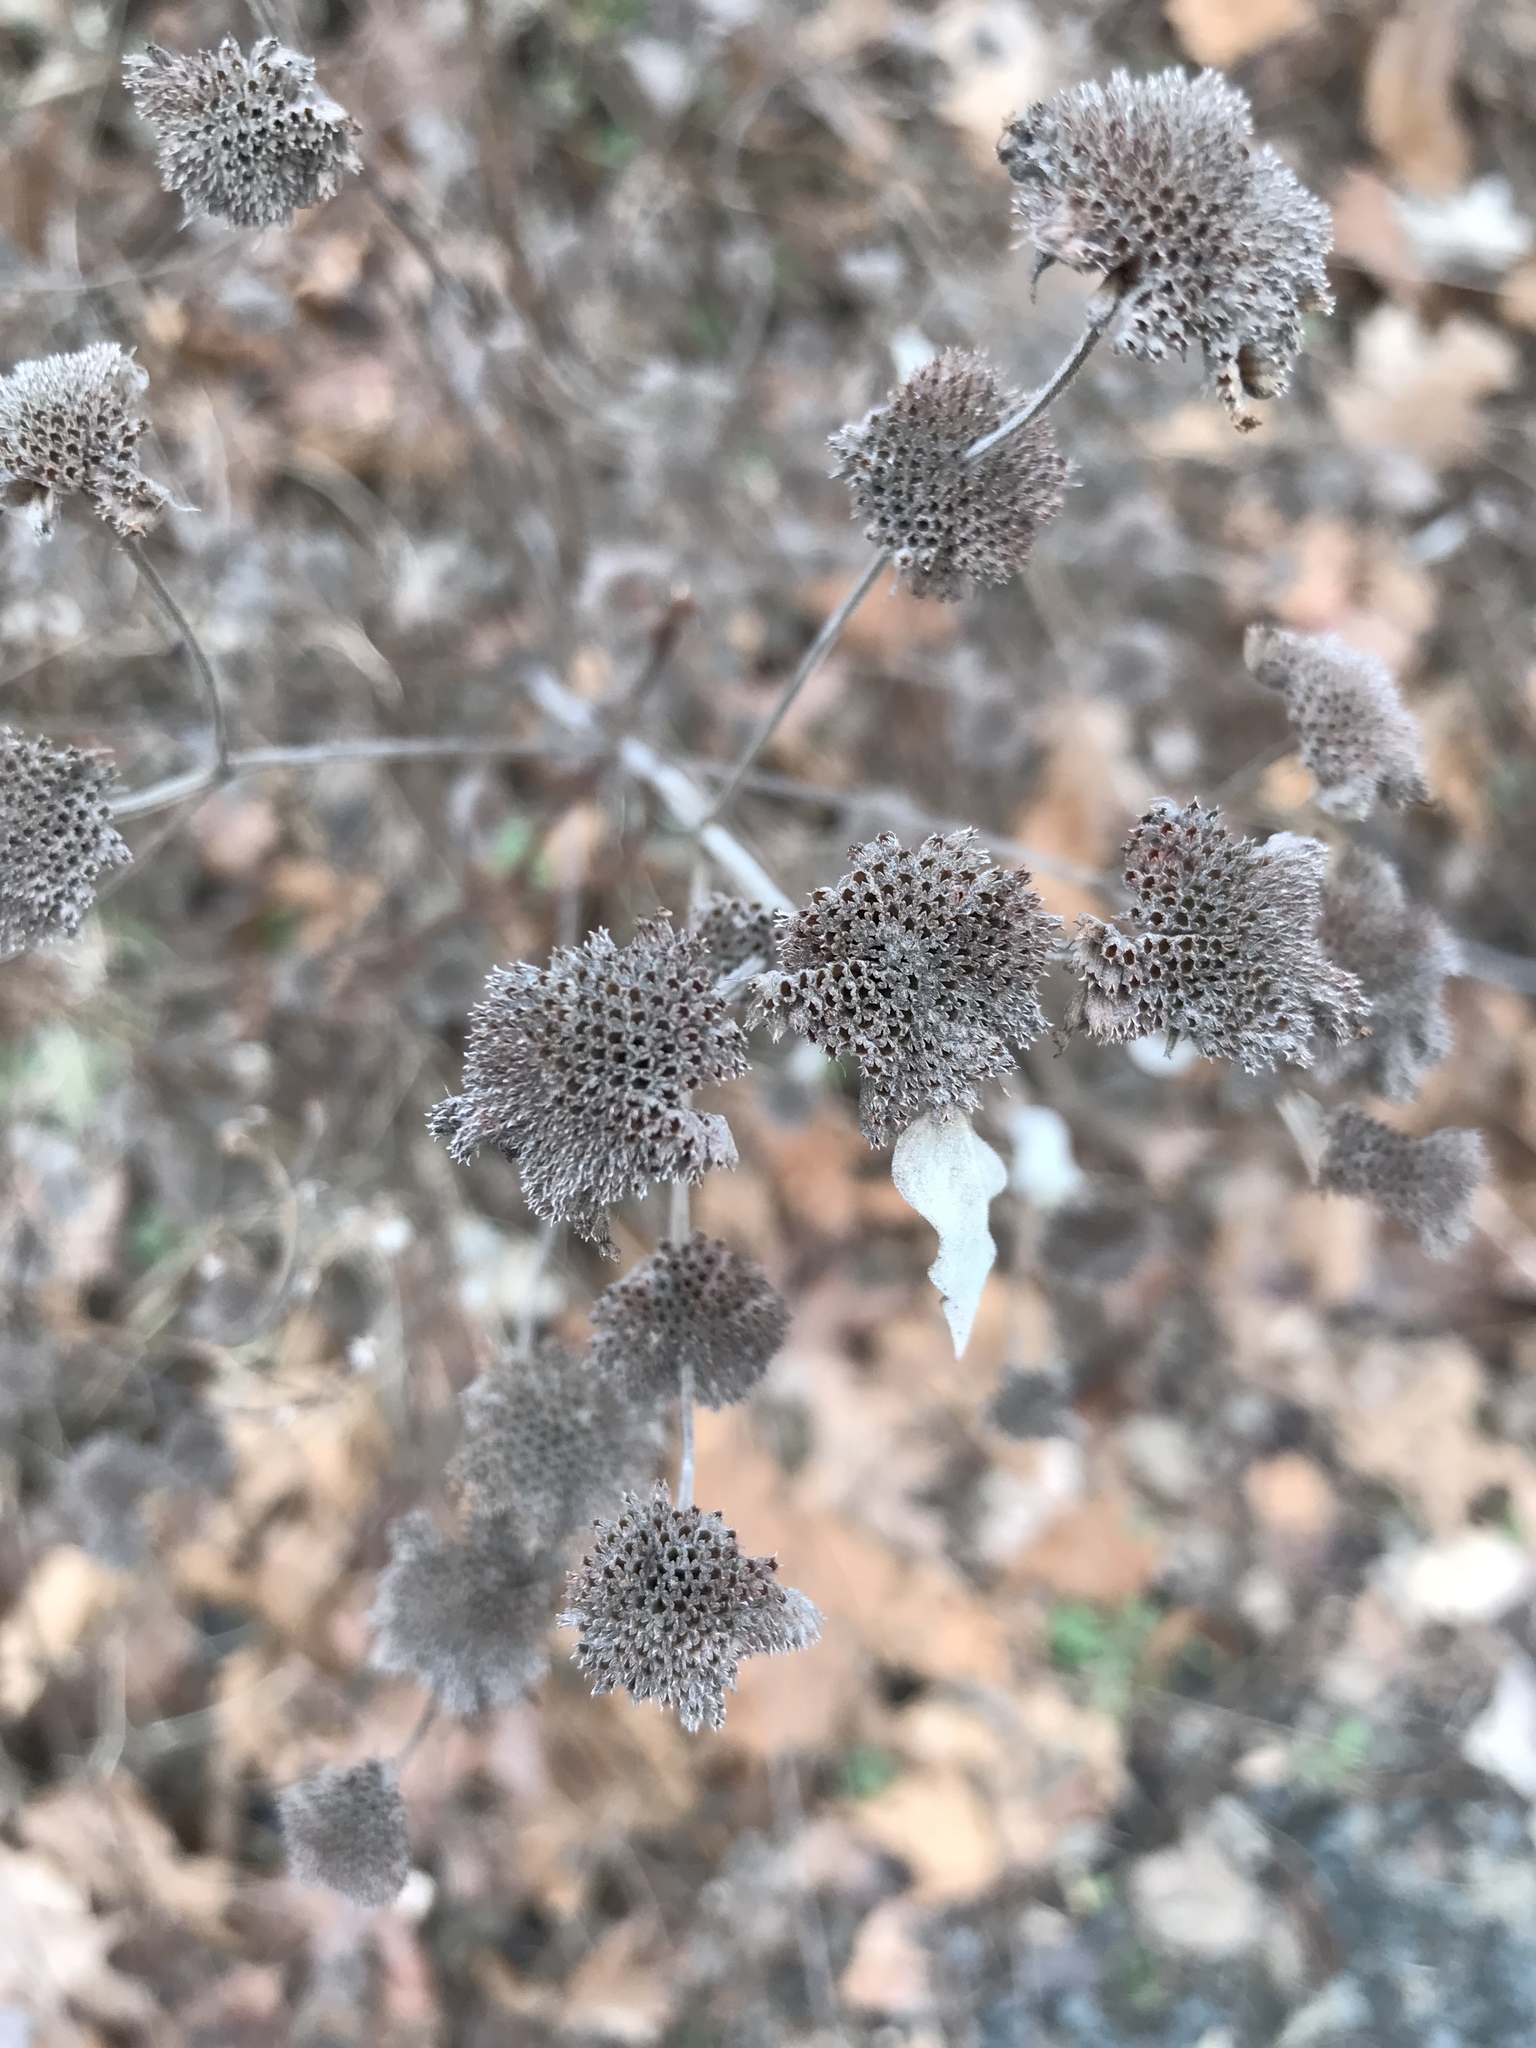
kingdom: Plantae
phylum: Tracheophyta
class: Magnoliopsida
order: Lamiales
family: Lamiaceae
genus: Pycnanthemum
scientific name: Pycnanthemum muticum
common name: Blunt mountain-mint
